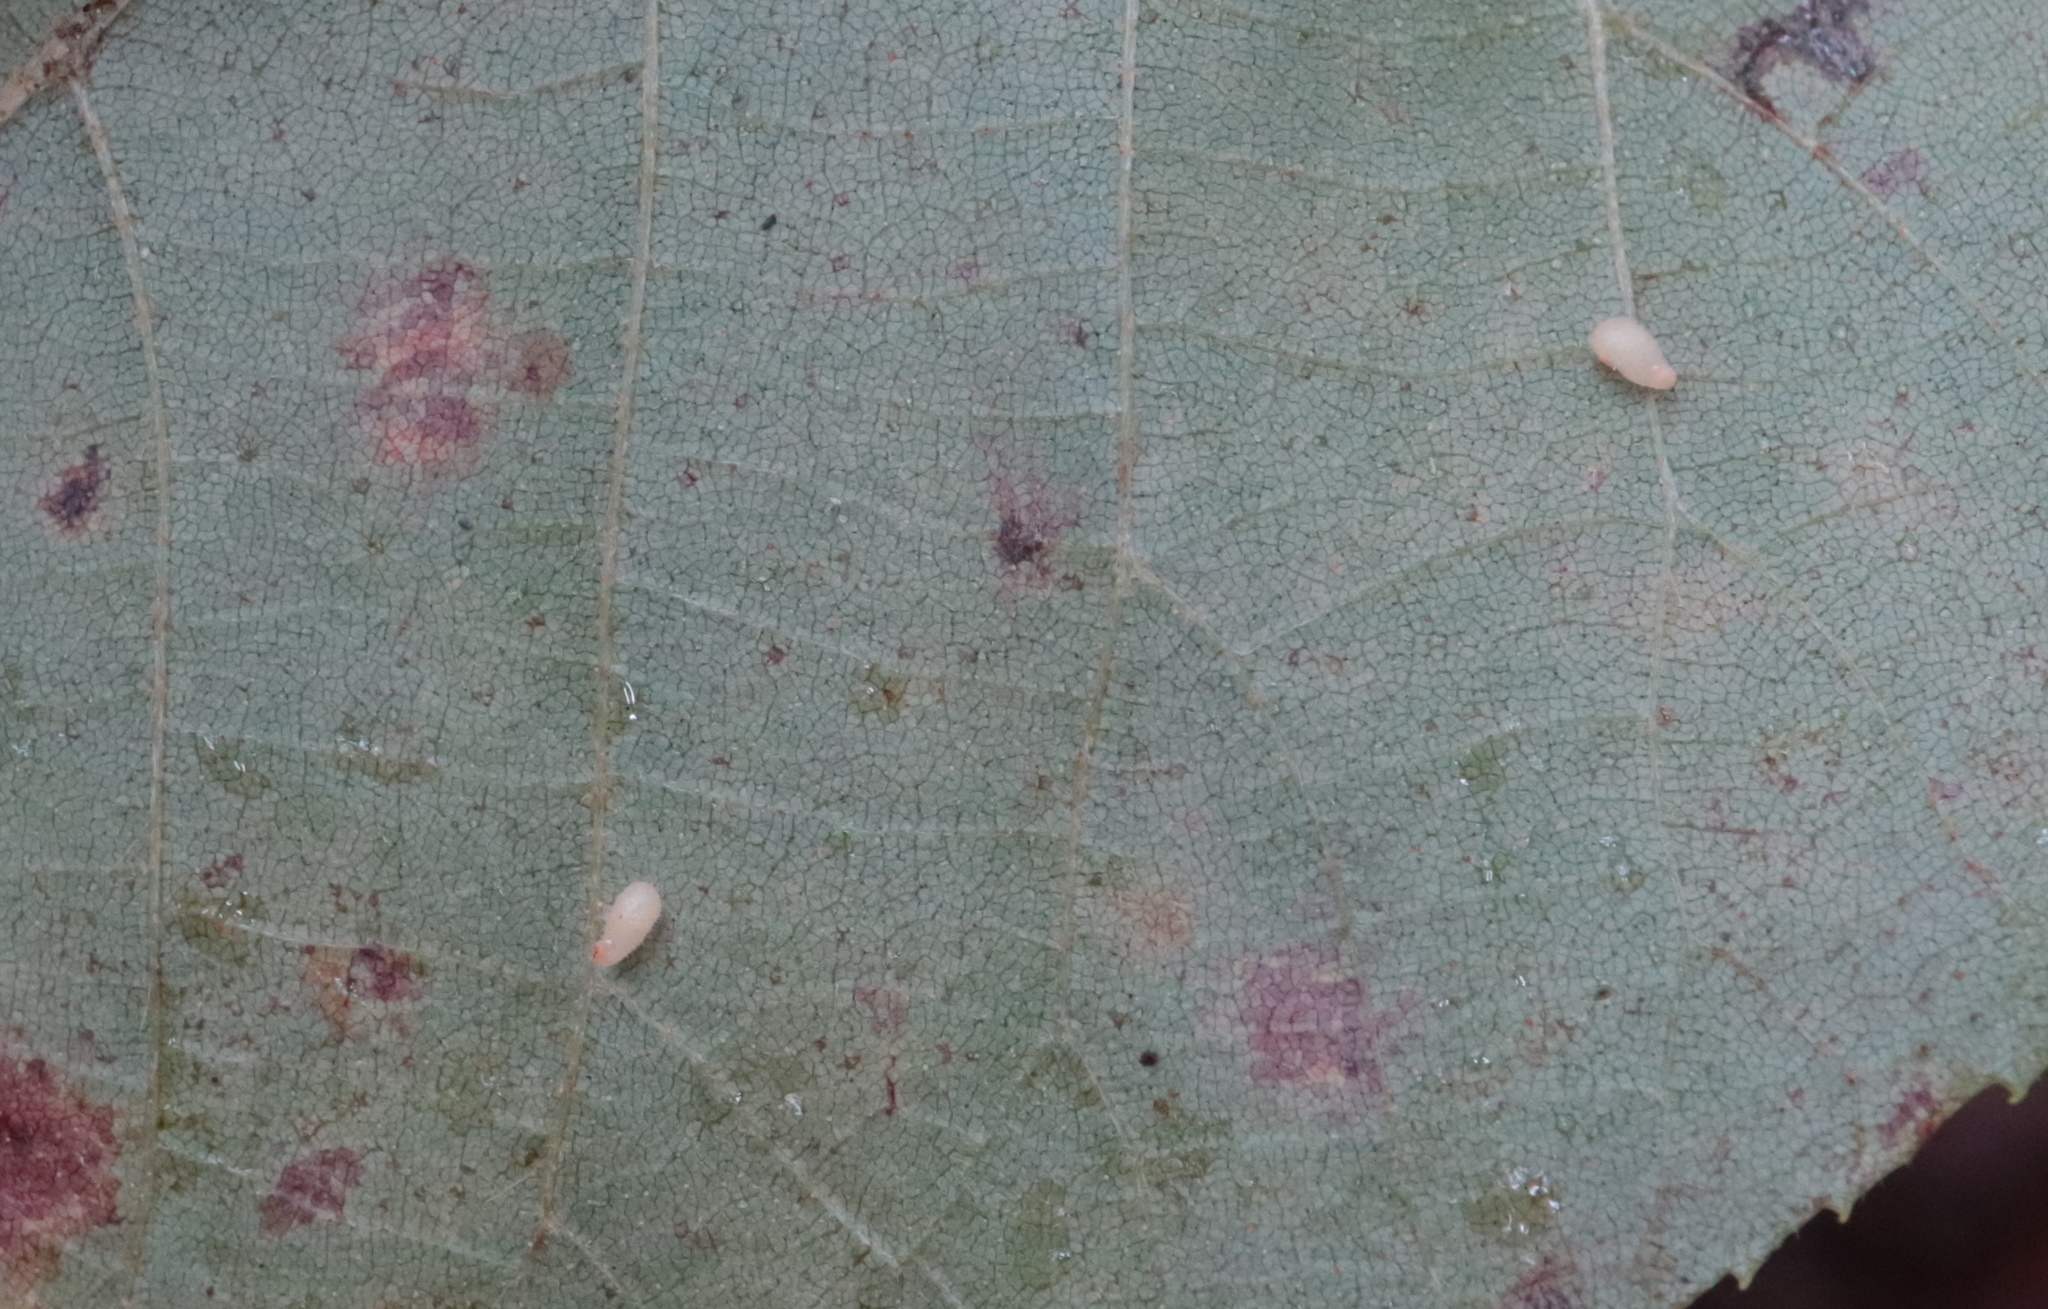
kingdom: Animalia
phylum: Arthropoda
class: Insecta
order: Diptera
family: Cecidomyiidae
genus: Caryomyia
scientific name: Caryomyia eumaris
